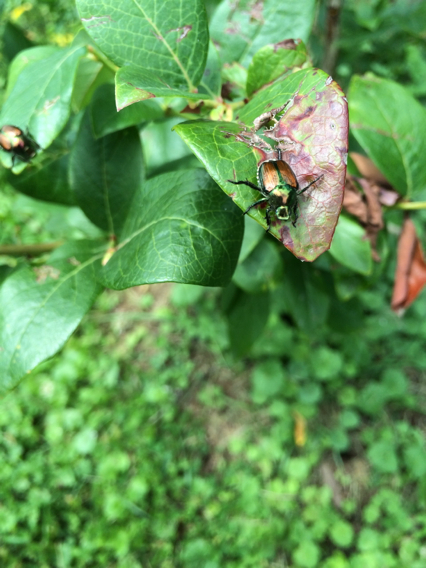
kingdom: Animalia
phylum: Arthropoda
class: Insecta
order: Coleoptera
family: Scarabaeidae
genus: Popillia
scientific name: Popillia japonica
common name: Japanese beetle
